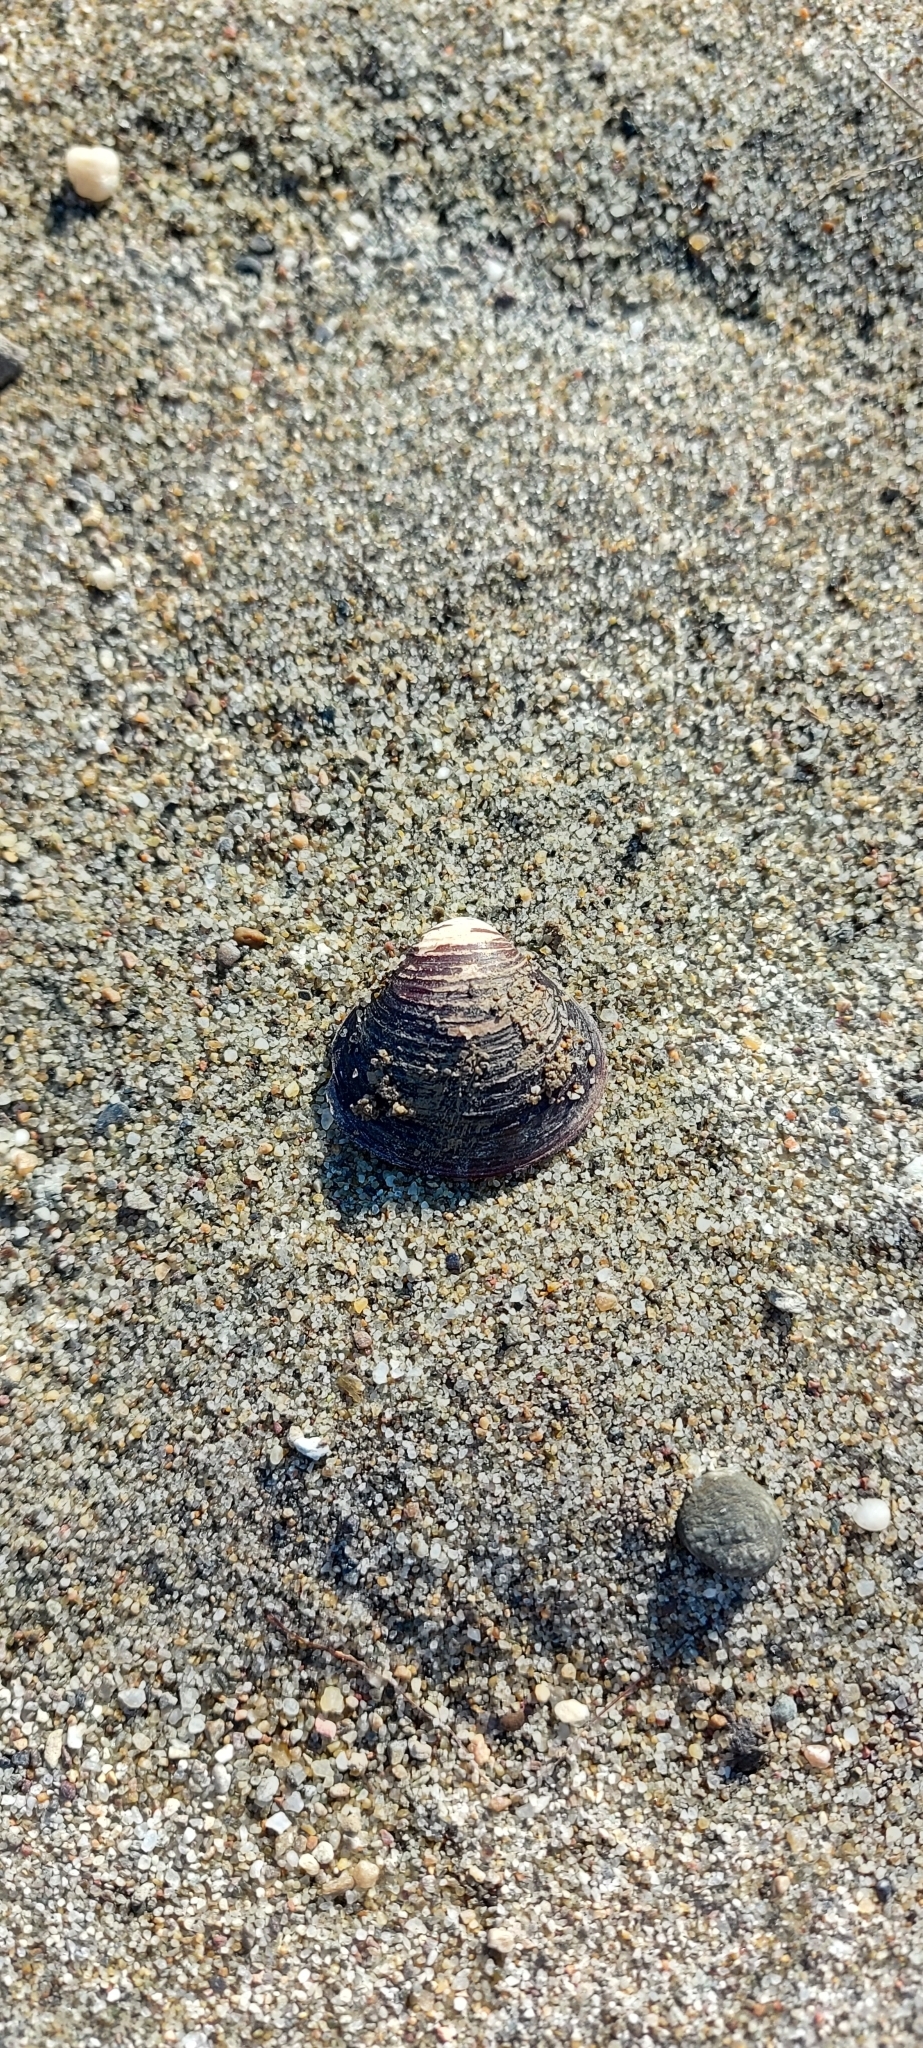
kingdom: Animalia
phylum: Mollusca
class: Bivalvia
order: Venerida
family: Cyrenidae
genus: Corbicula
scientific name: Corbicula fluminea
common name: Asian clam
